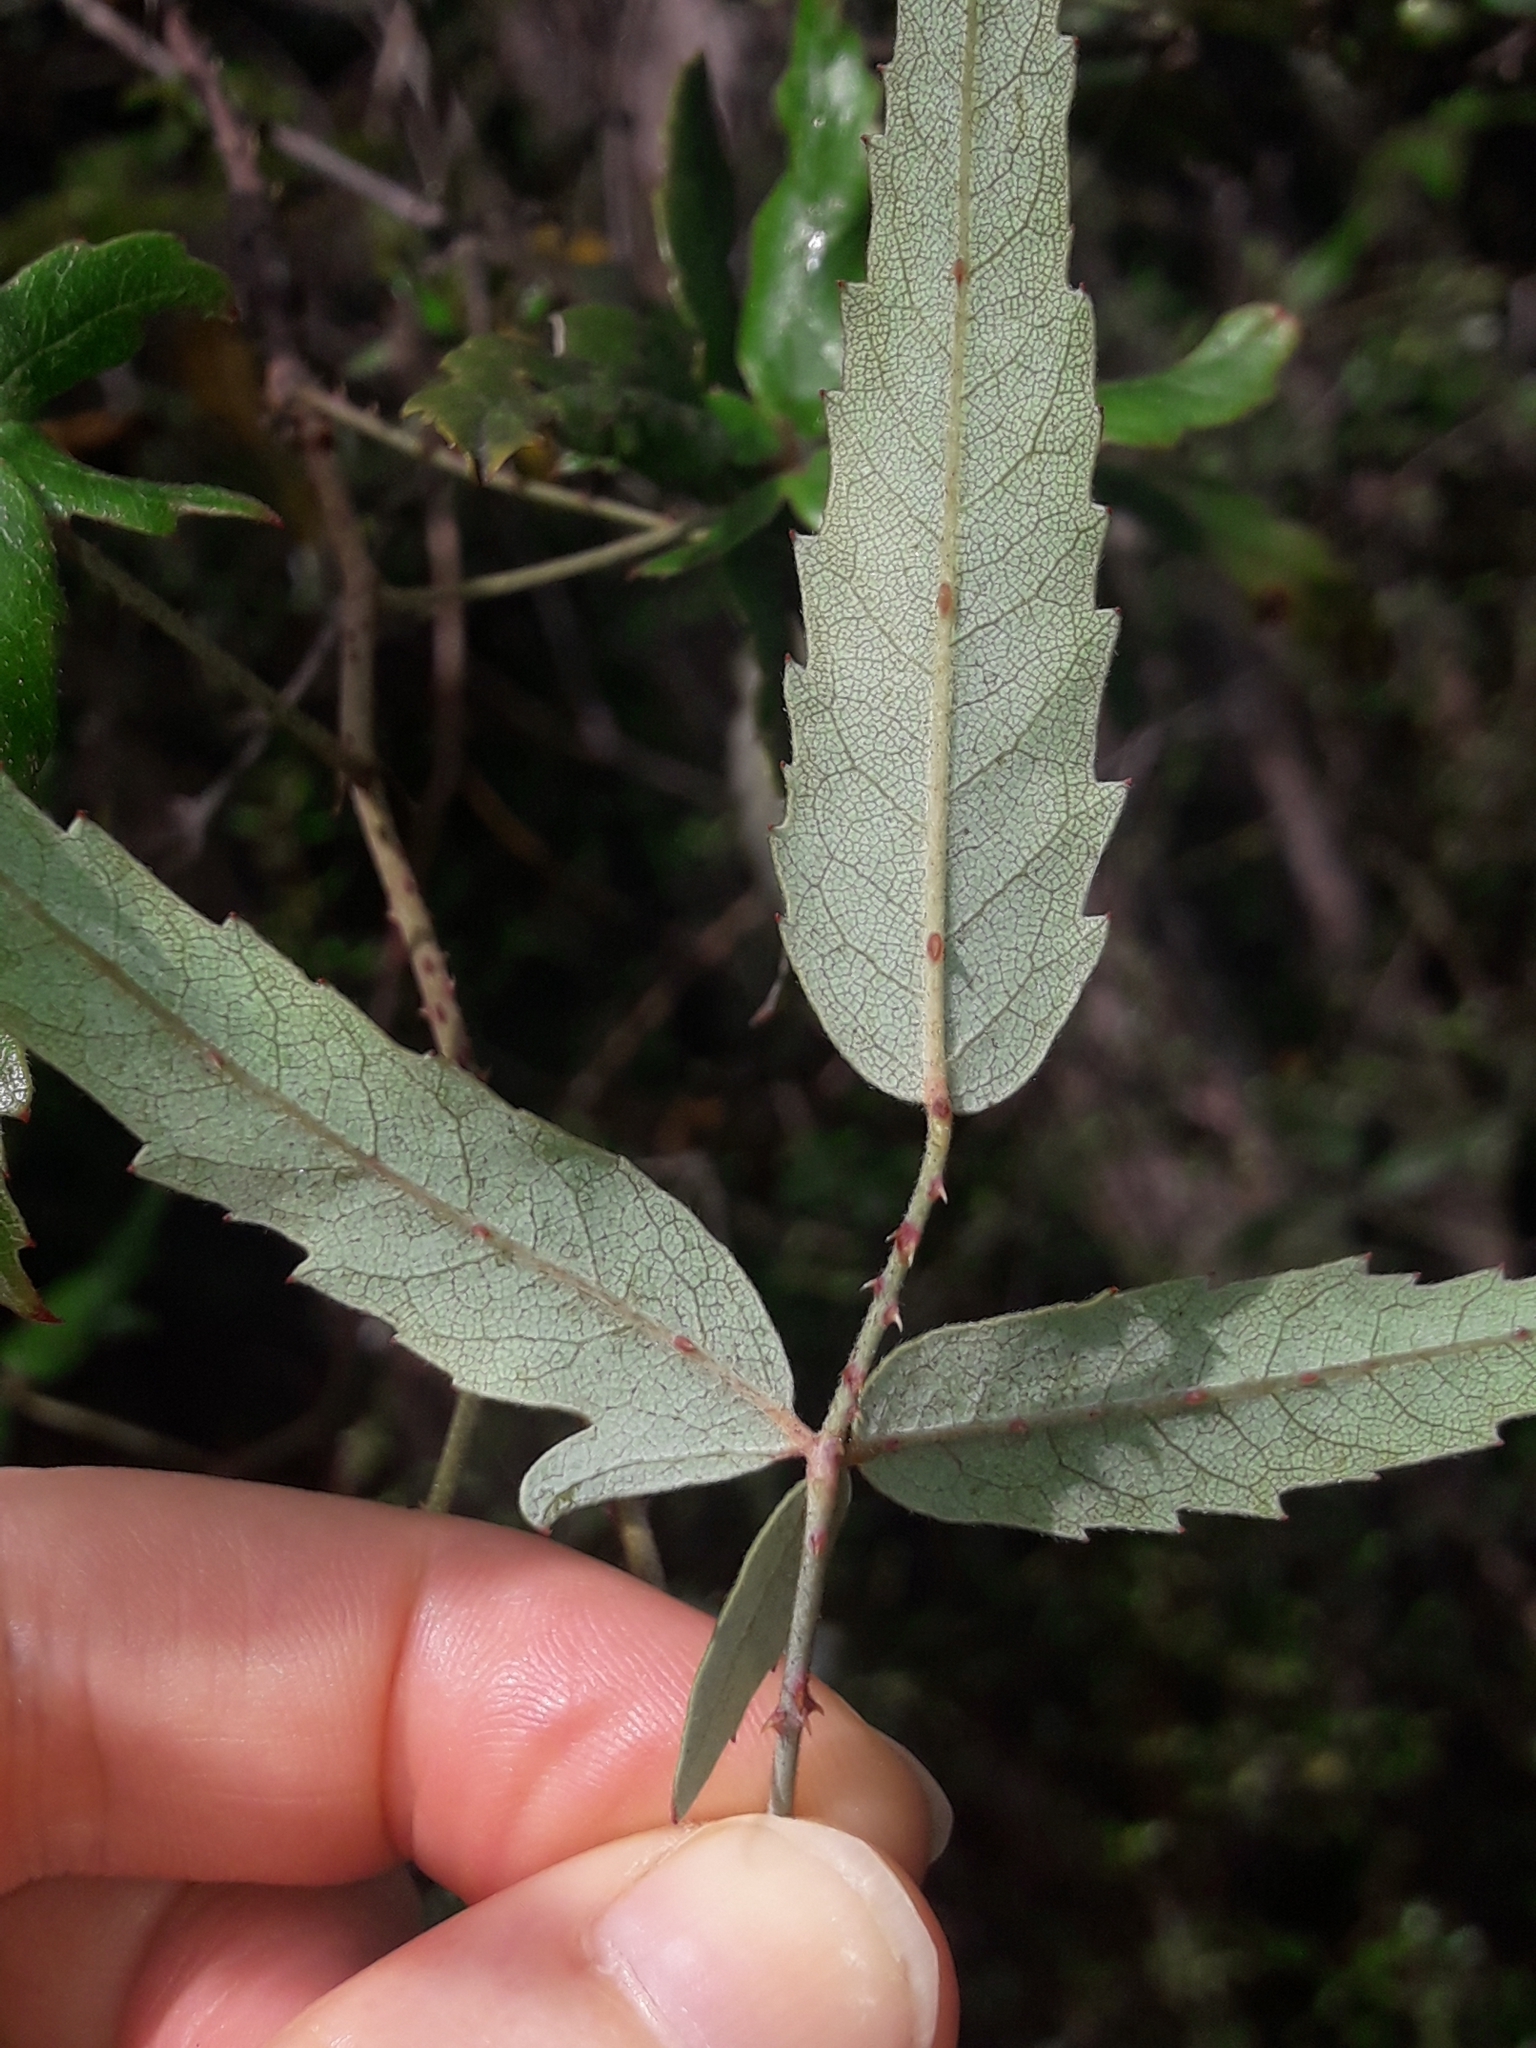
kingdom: Plantae
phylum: Tracheophyta
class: Magnoliopsida
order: Rosales
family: Rosaceae
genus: Rubus
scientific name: Rubus schmidelioides
